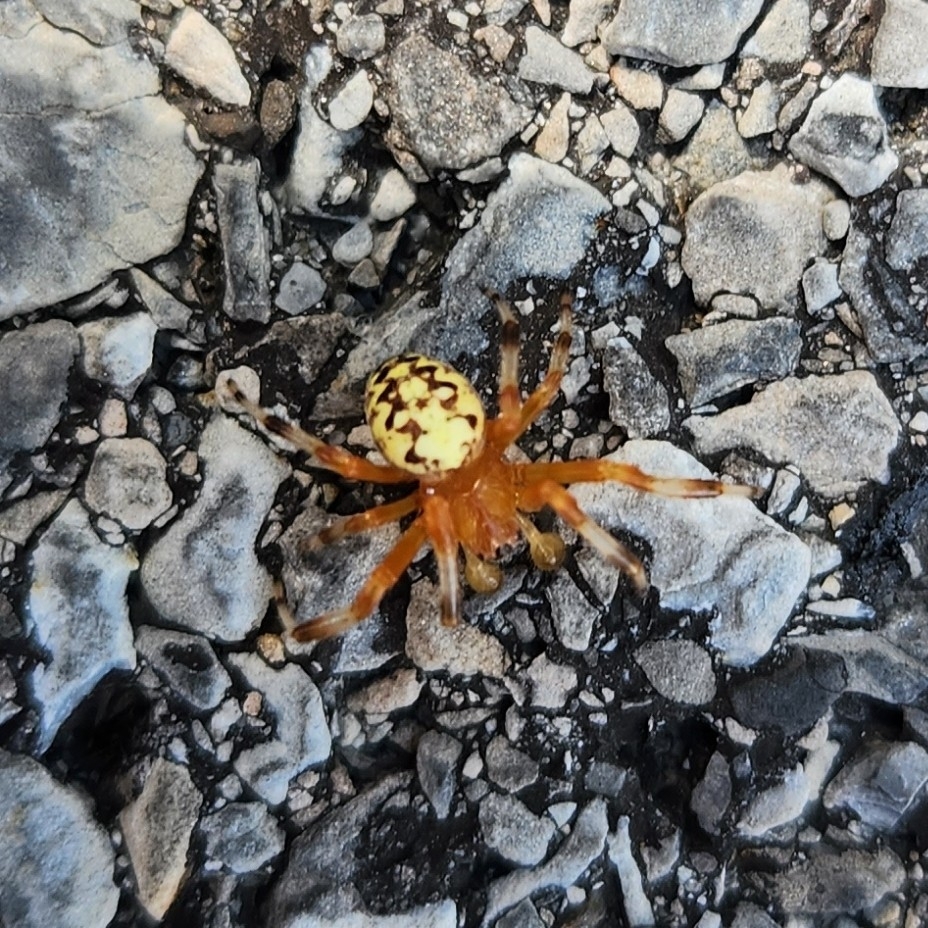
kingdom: Animalia
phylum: Arthropoda
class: Arachnida
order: Araneae
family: Araneidae
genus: Araneus
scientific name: Araneus marmoreus
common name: Marbled orbweaver
